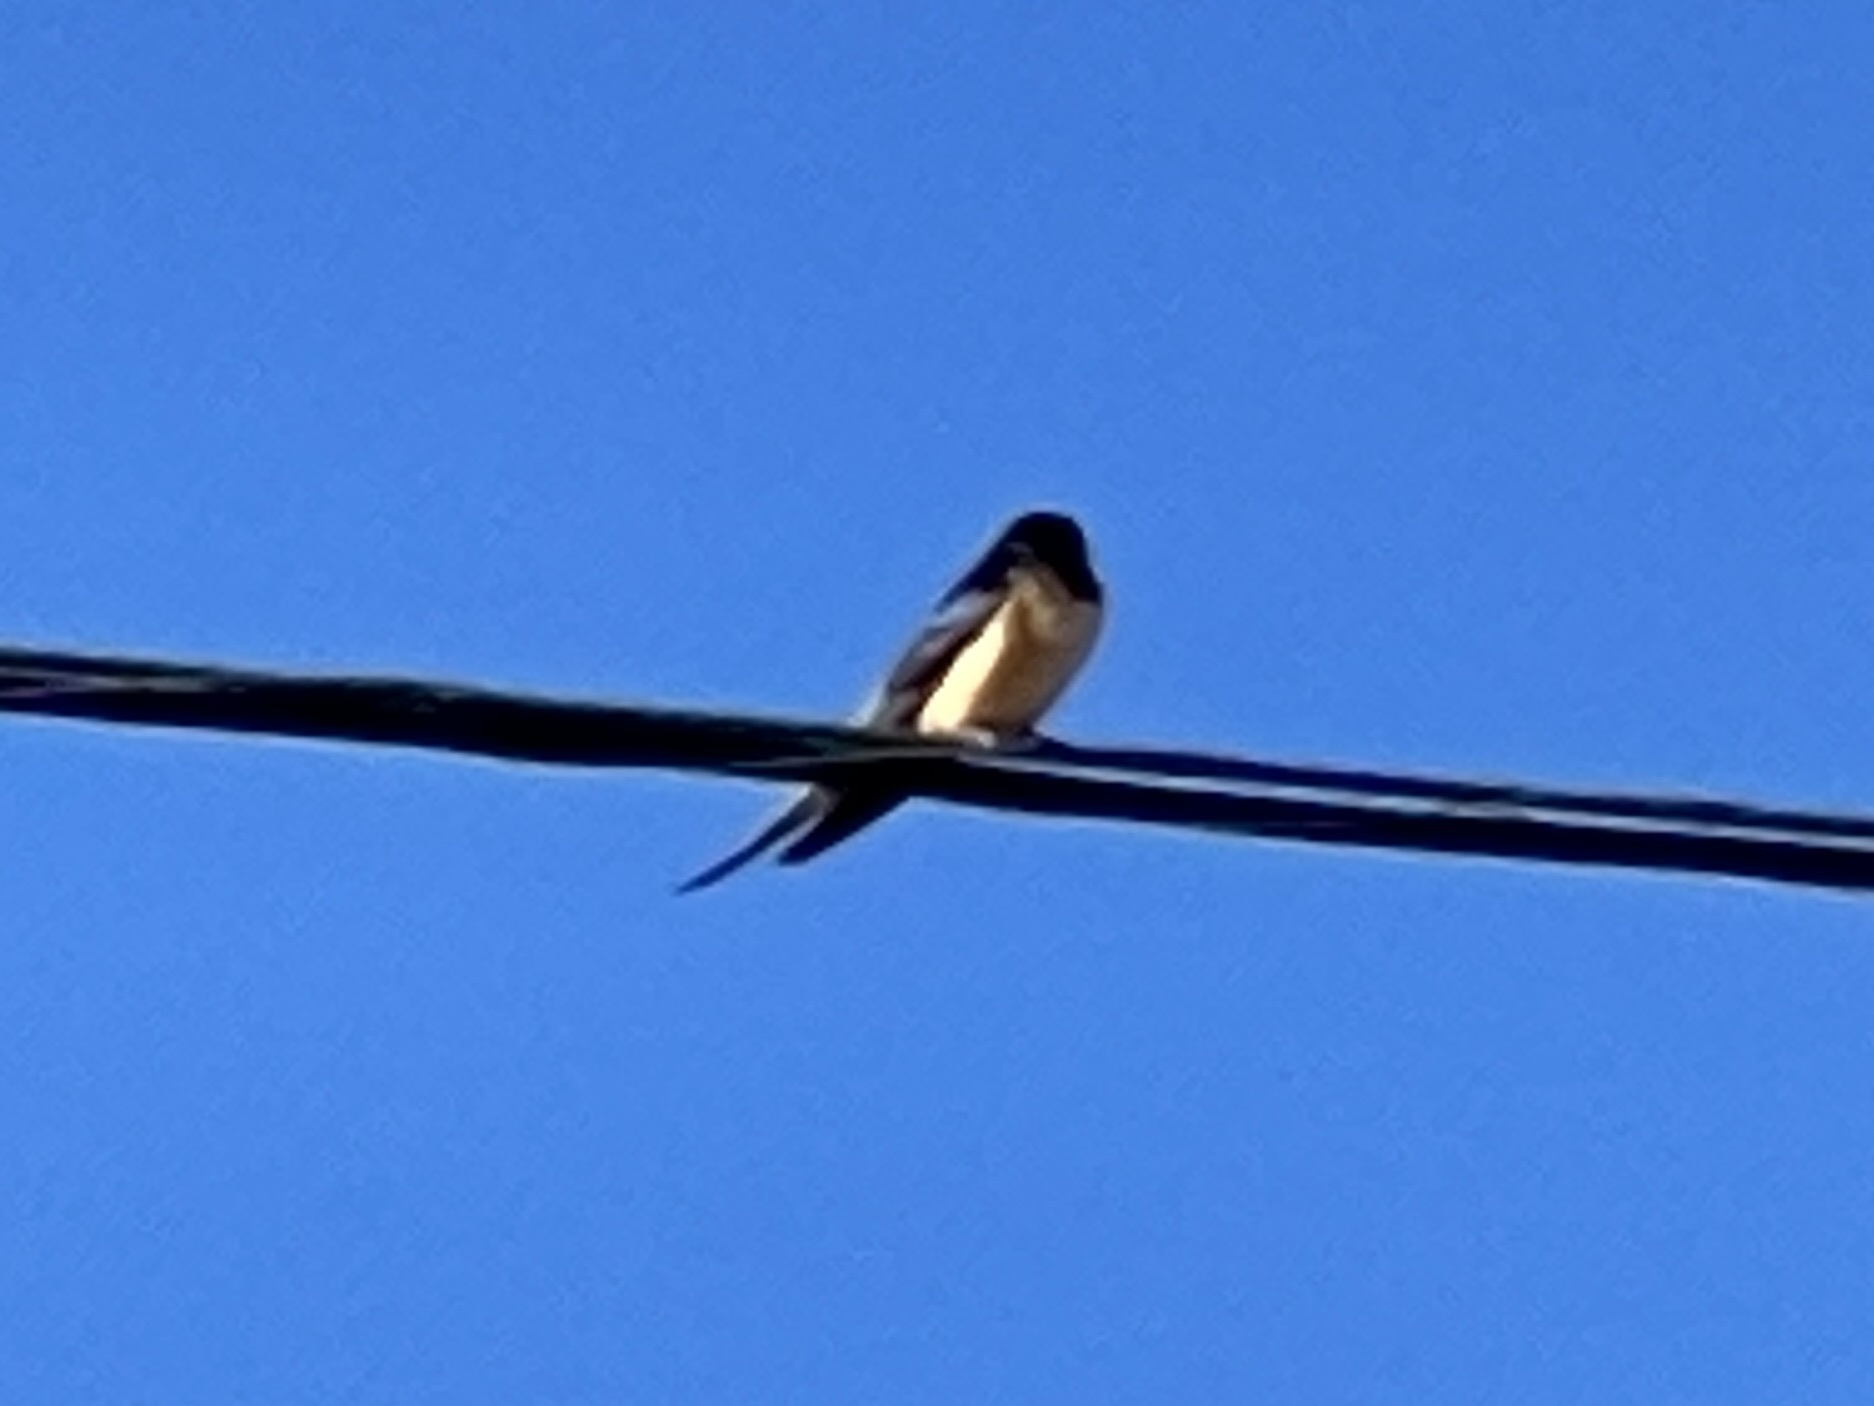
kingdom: Animalia
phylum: Chordata
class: Aves
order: Passeriformes
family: Hirundinidae
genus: Hirundo
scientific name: Hirundo rustica
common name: Barn swallow
